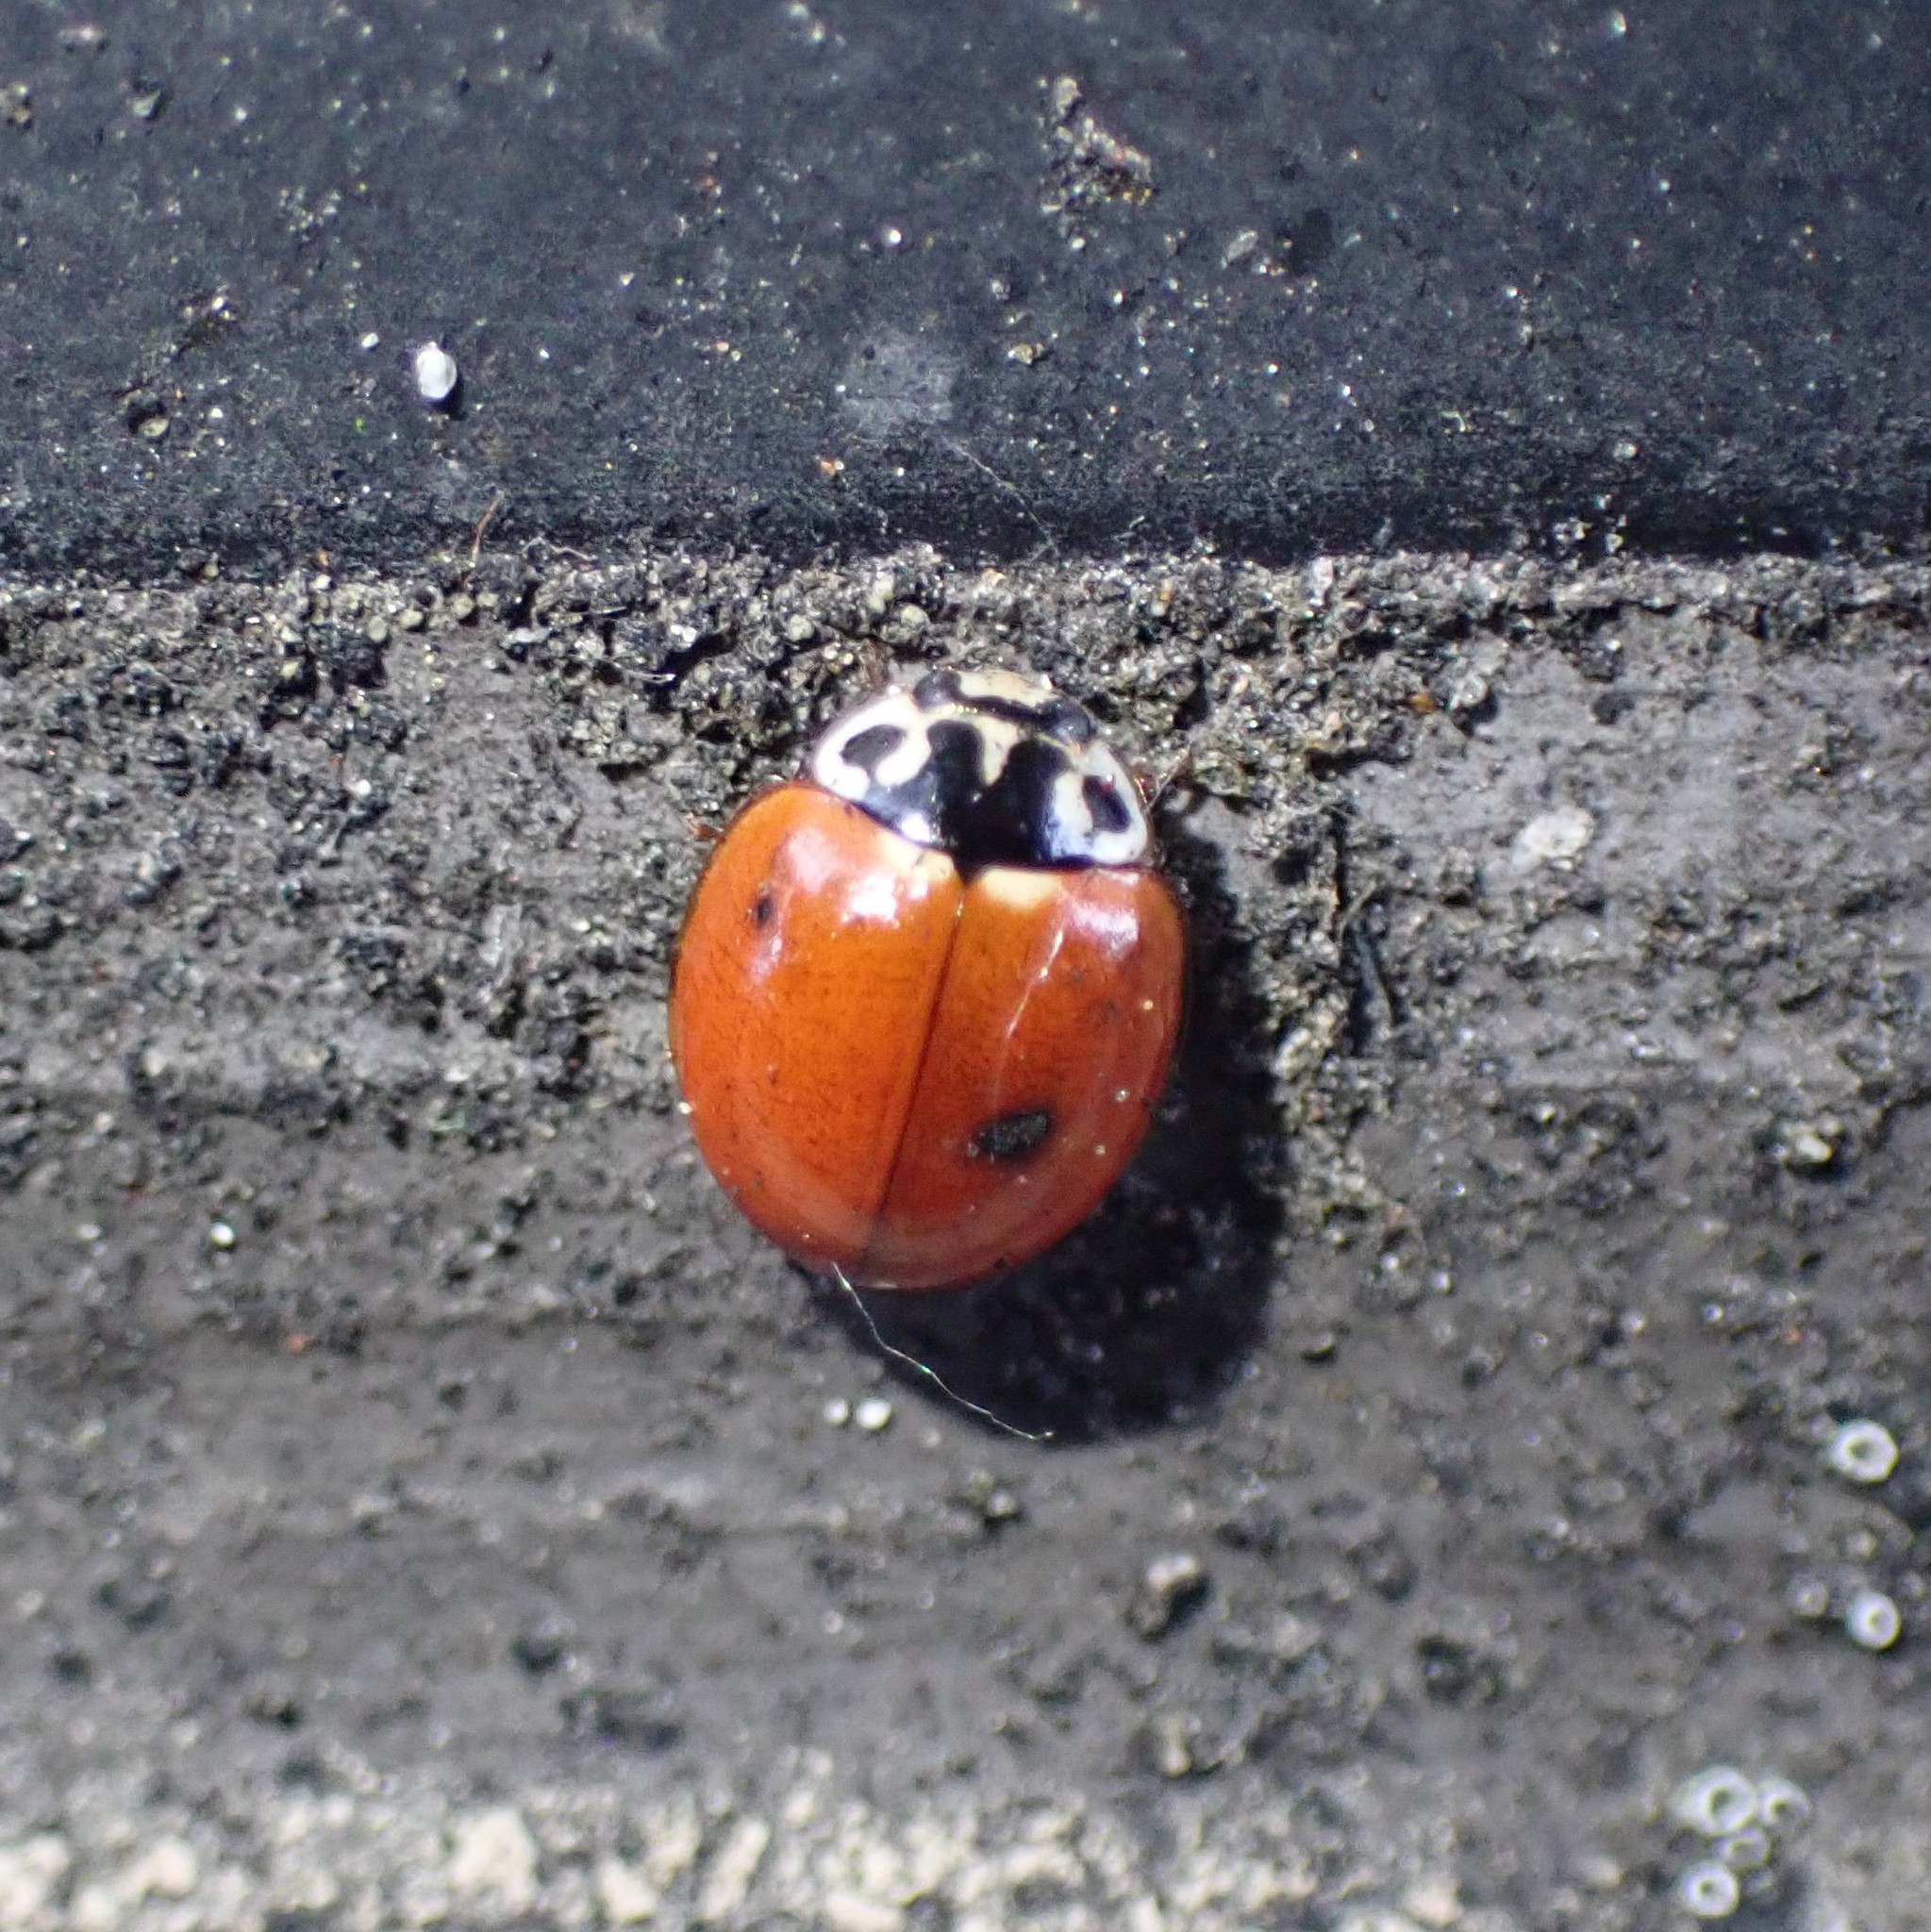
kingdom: Animalia
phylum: Arthropoda
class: Insecta
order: Coleoptera
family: Coccinellidae
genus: Cycloneda
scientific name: Cycloneda polita
